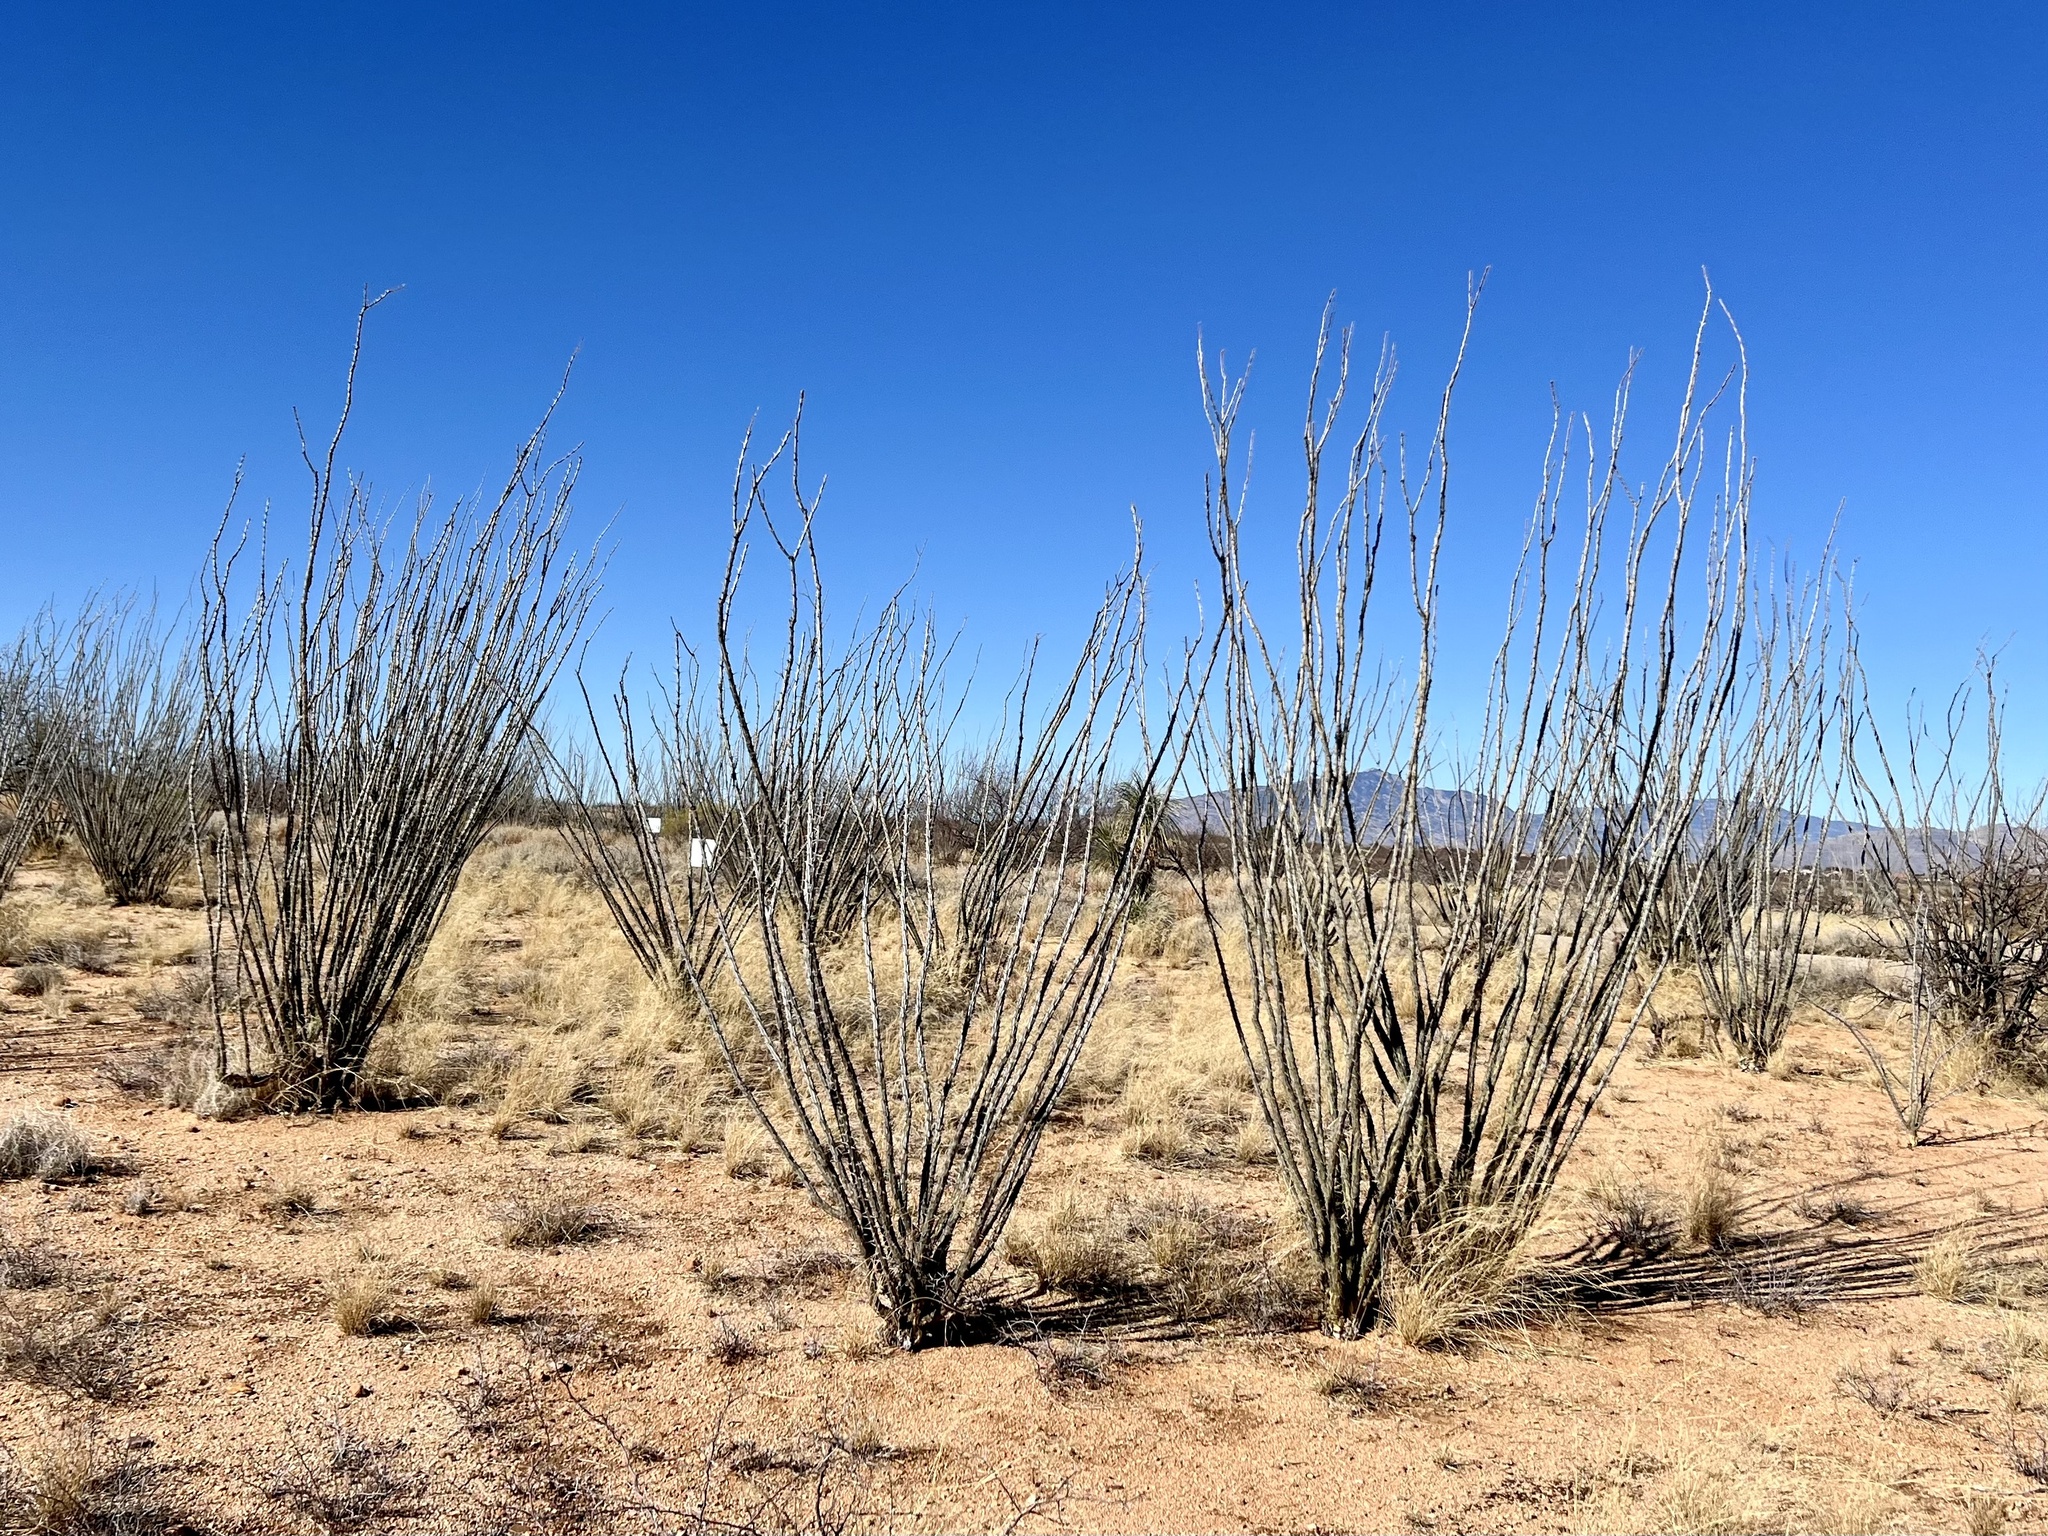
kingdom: Plantae
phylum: Tracheophyta
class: Magnoliopsida
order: Ericales
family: Fouquieriaceae
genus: Fouquieria
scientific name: Fouquieria splendens
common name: Vine-cactus
